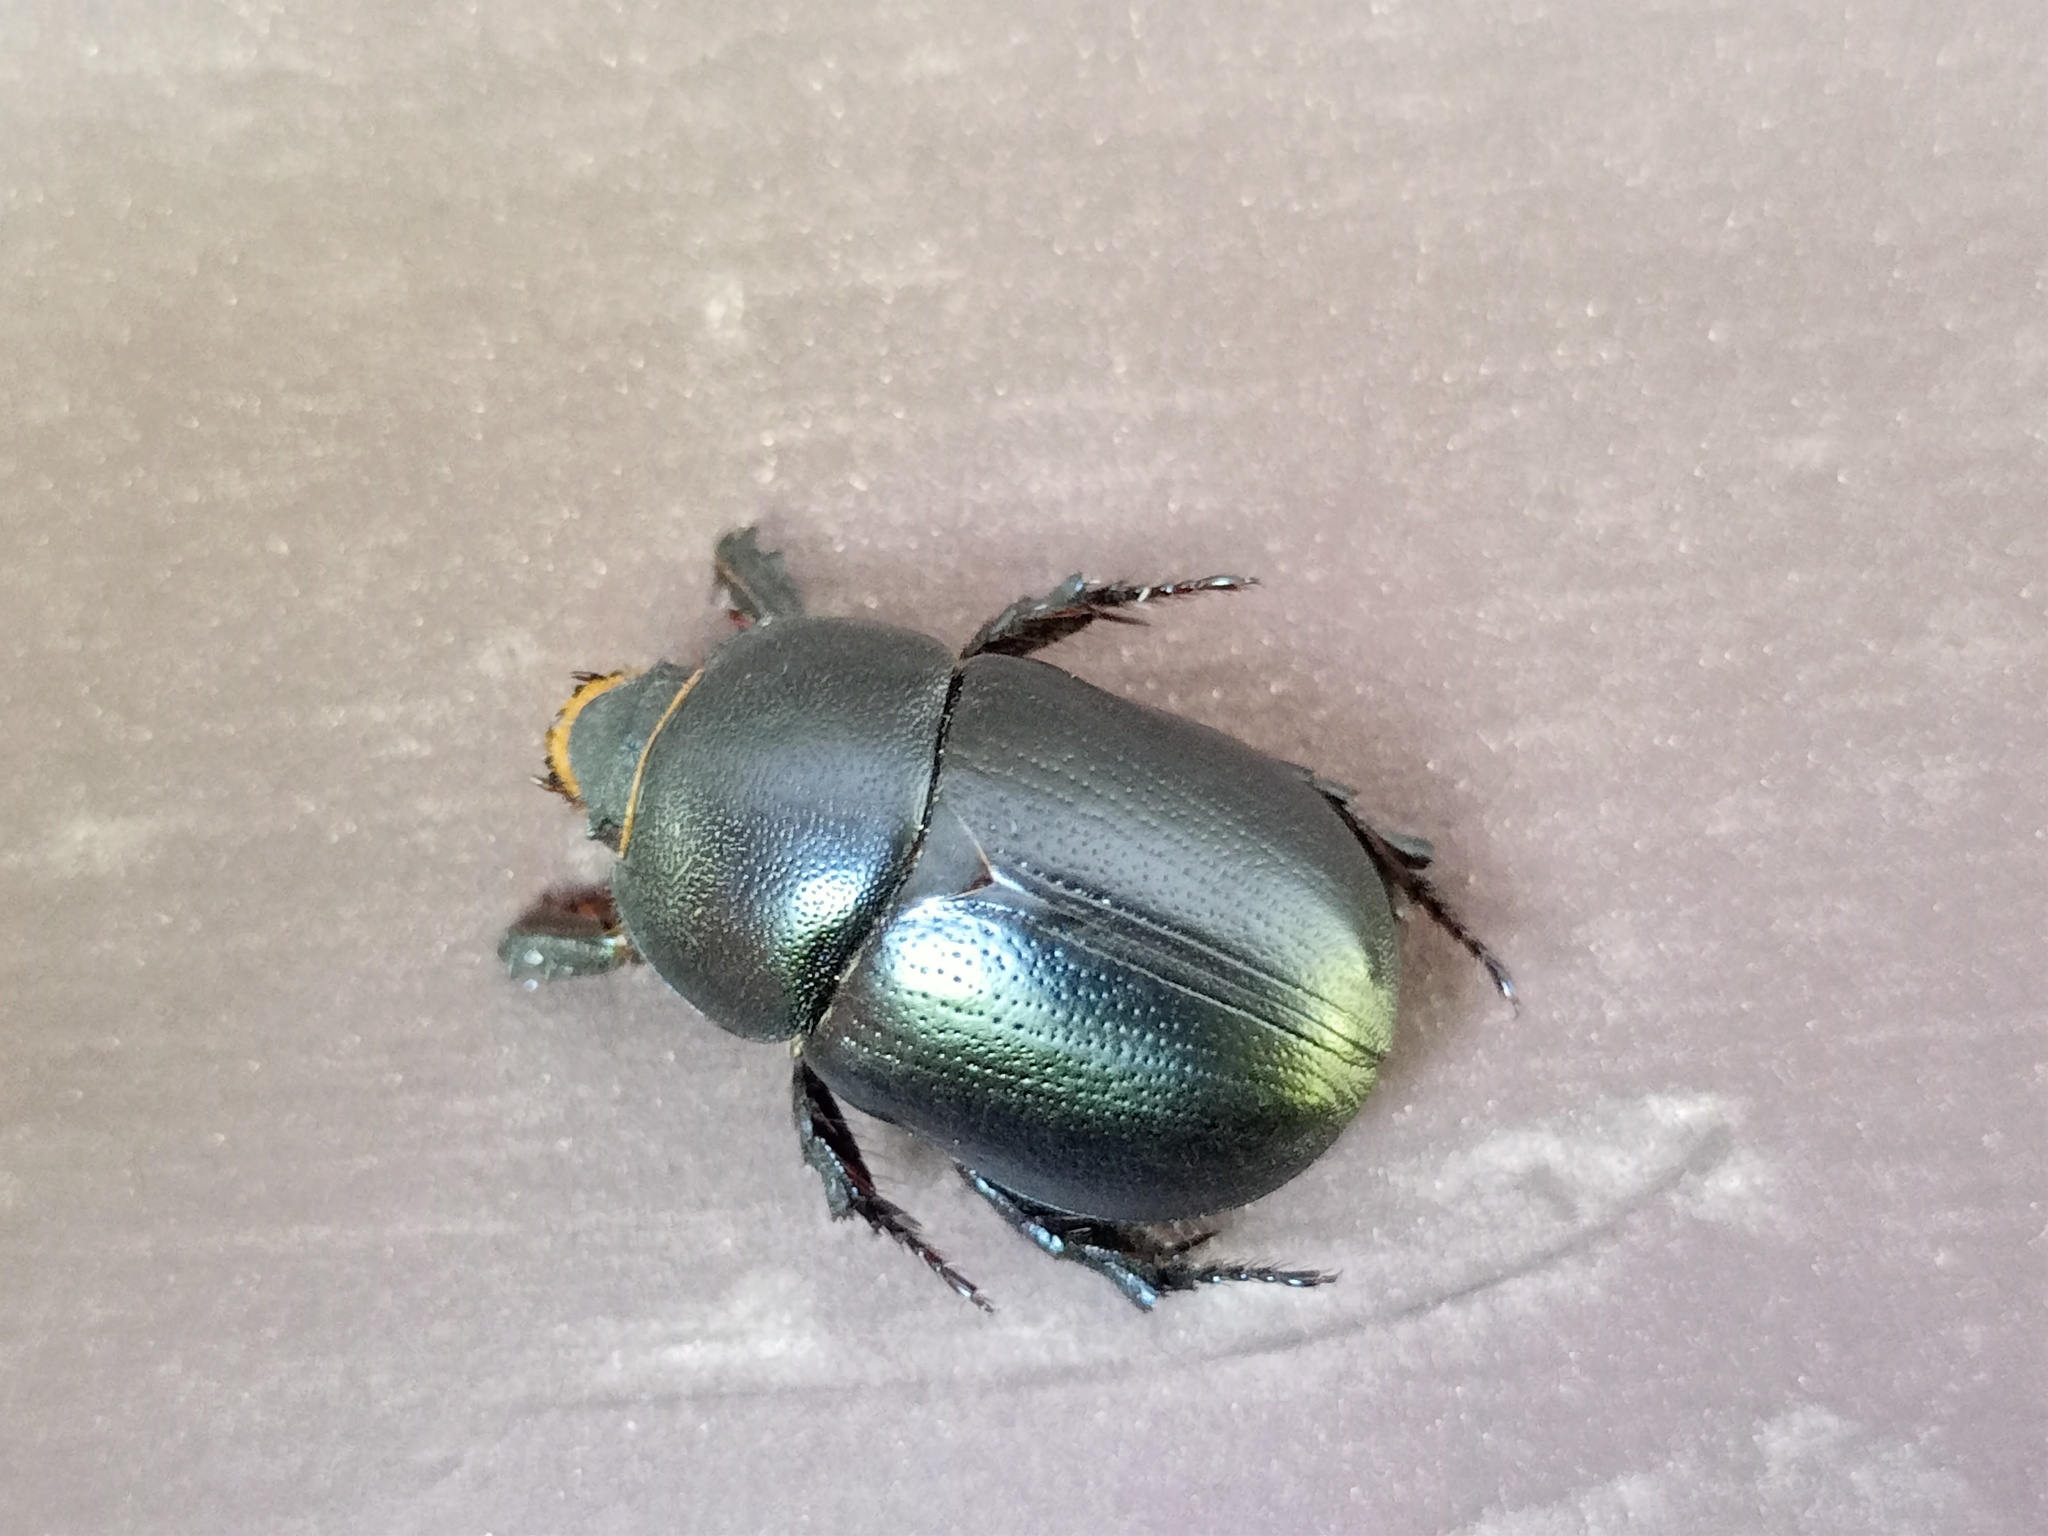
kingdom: Animalia
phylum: Arthropoda
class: Insecta
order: Coleoptera
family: Scarabaeidae
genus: Pentodon
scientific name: Pentodon idiota
